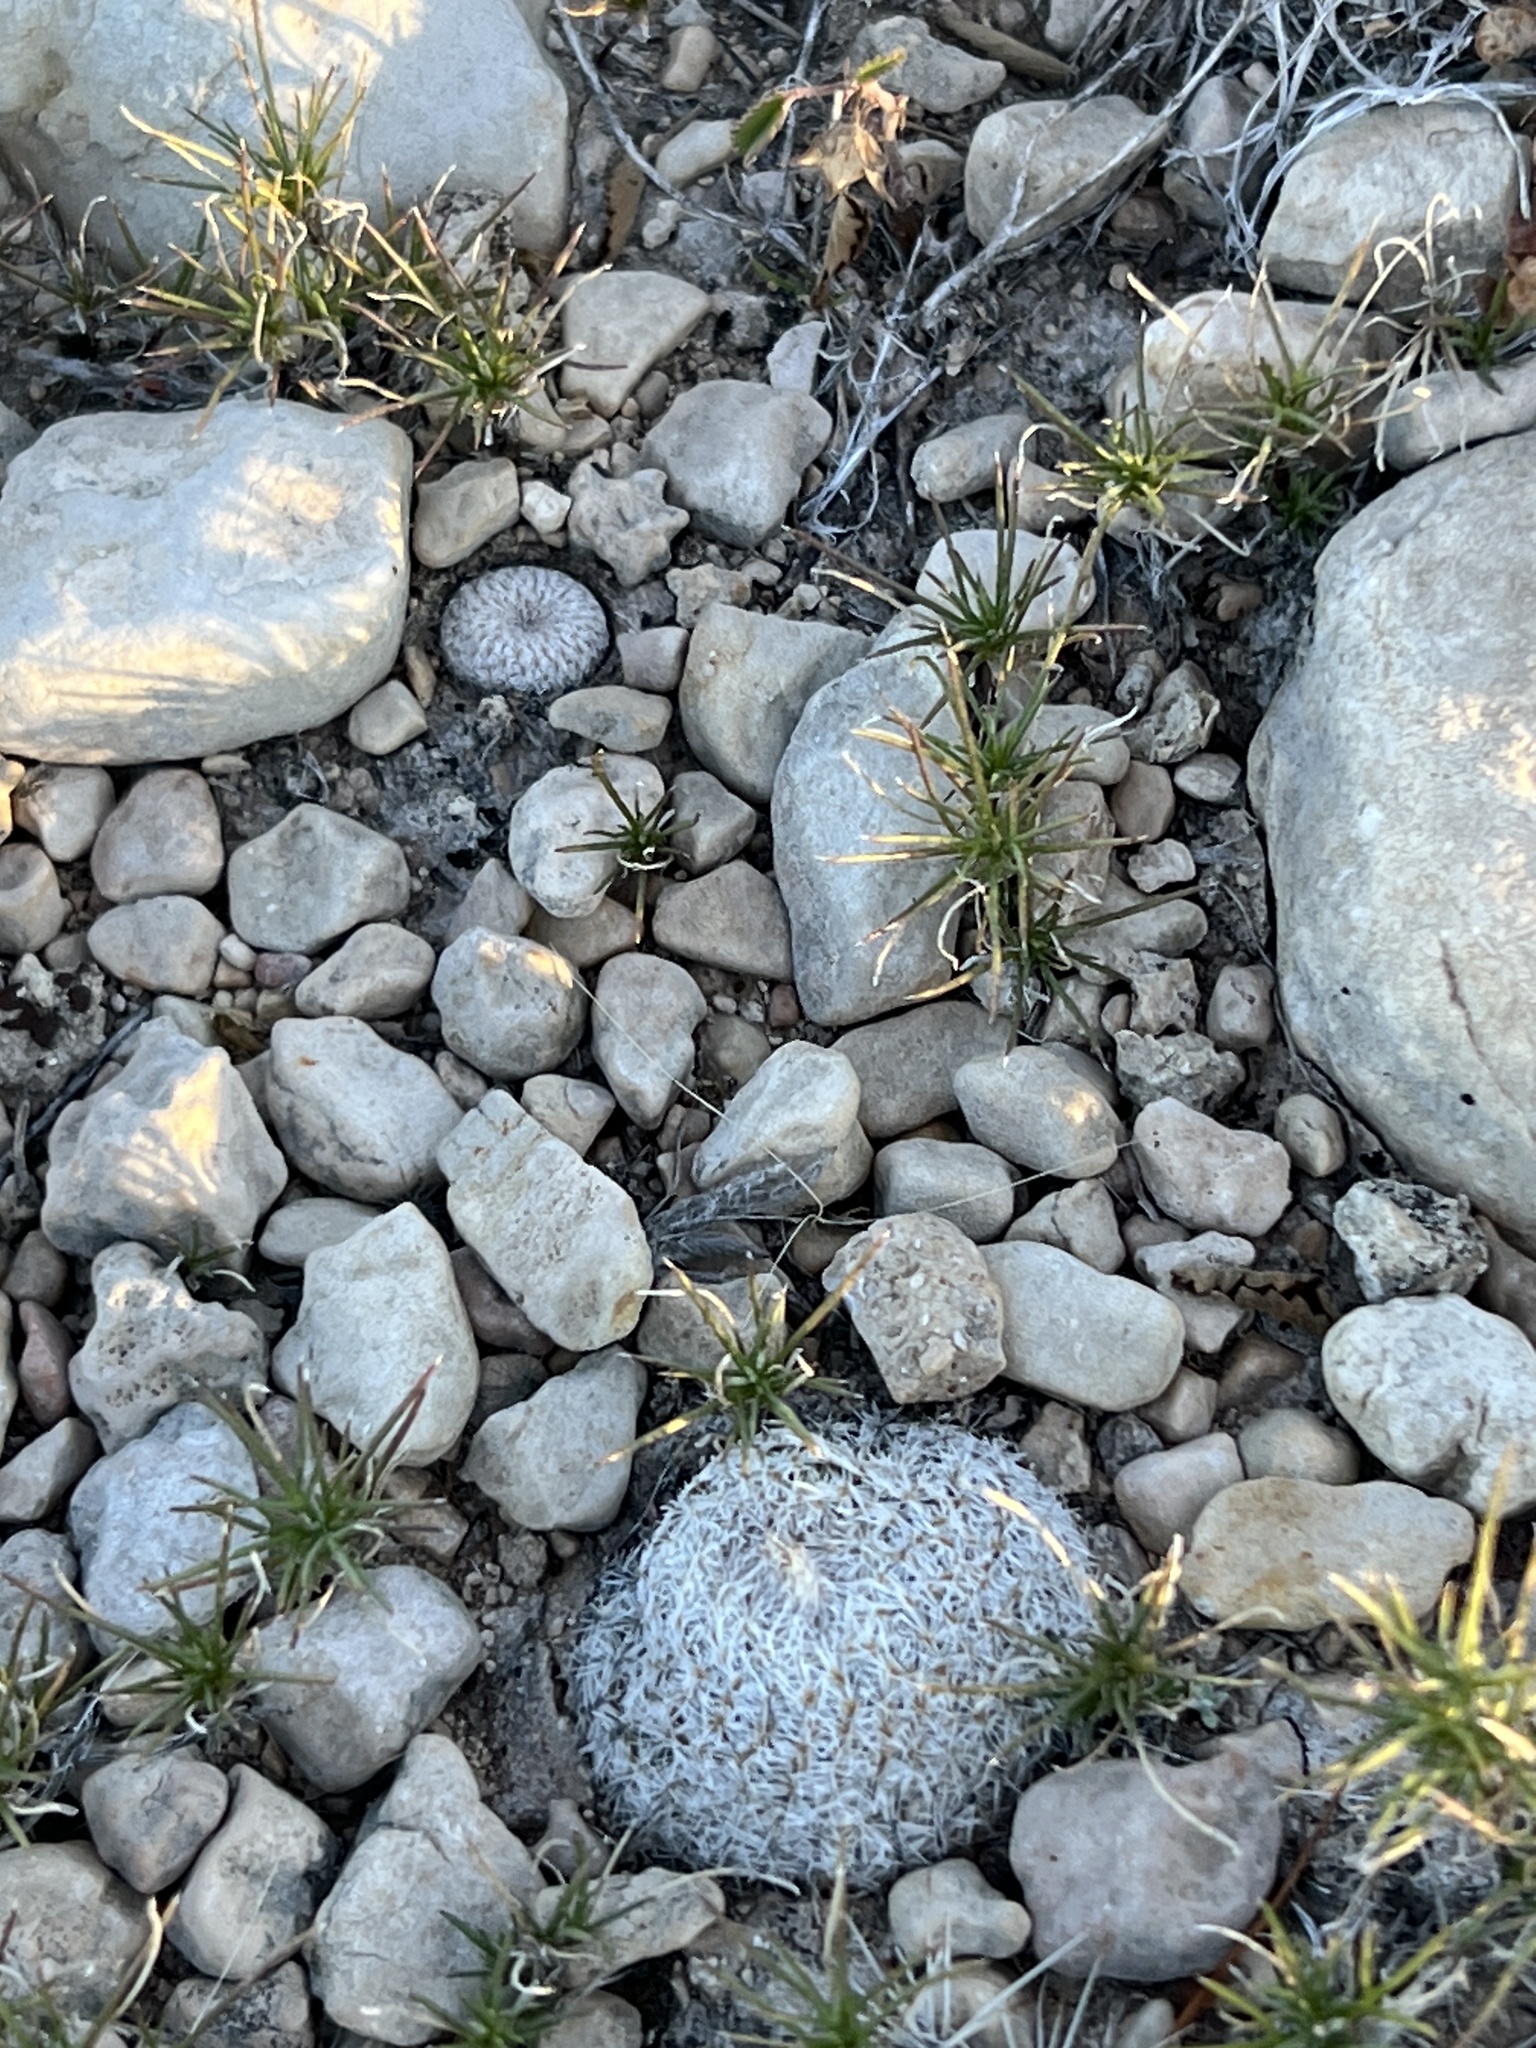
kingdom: Plantae
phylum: Tracheophyta
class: Magnoliopsida
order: Caryophyllales
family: Cactaceae
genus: Epithelantha
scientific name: Epithelantha micromeris
